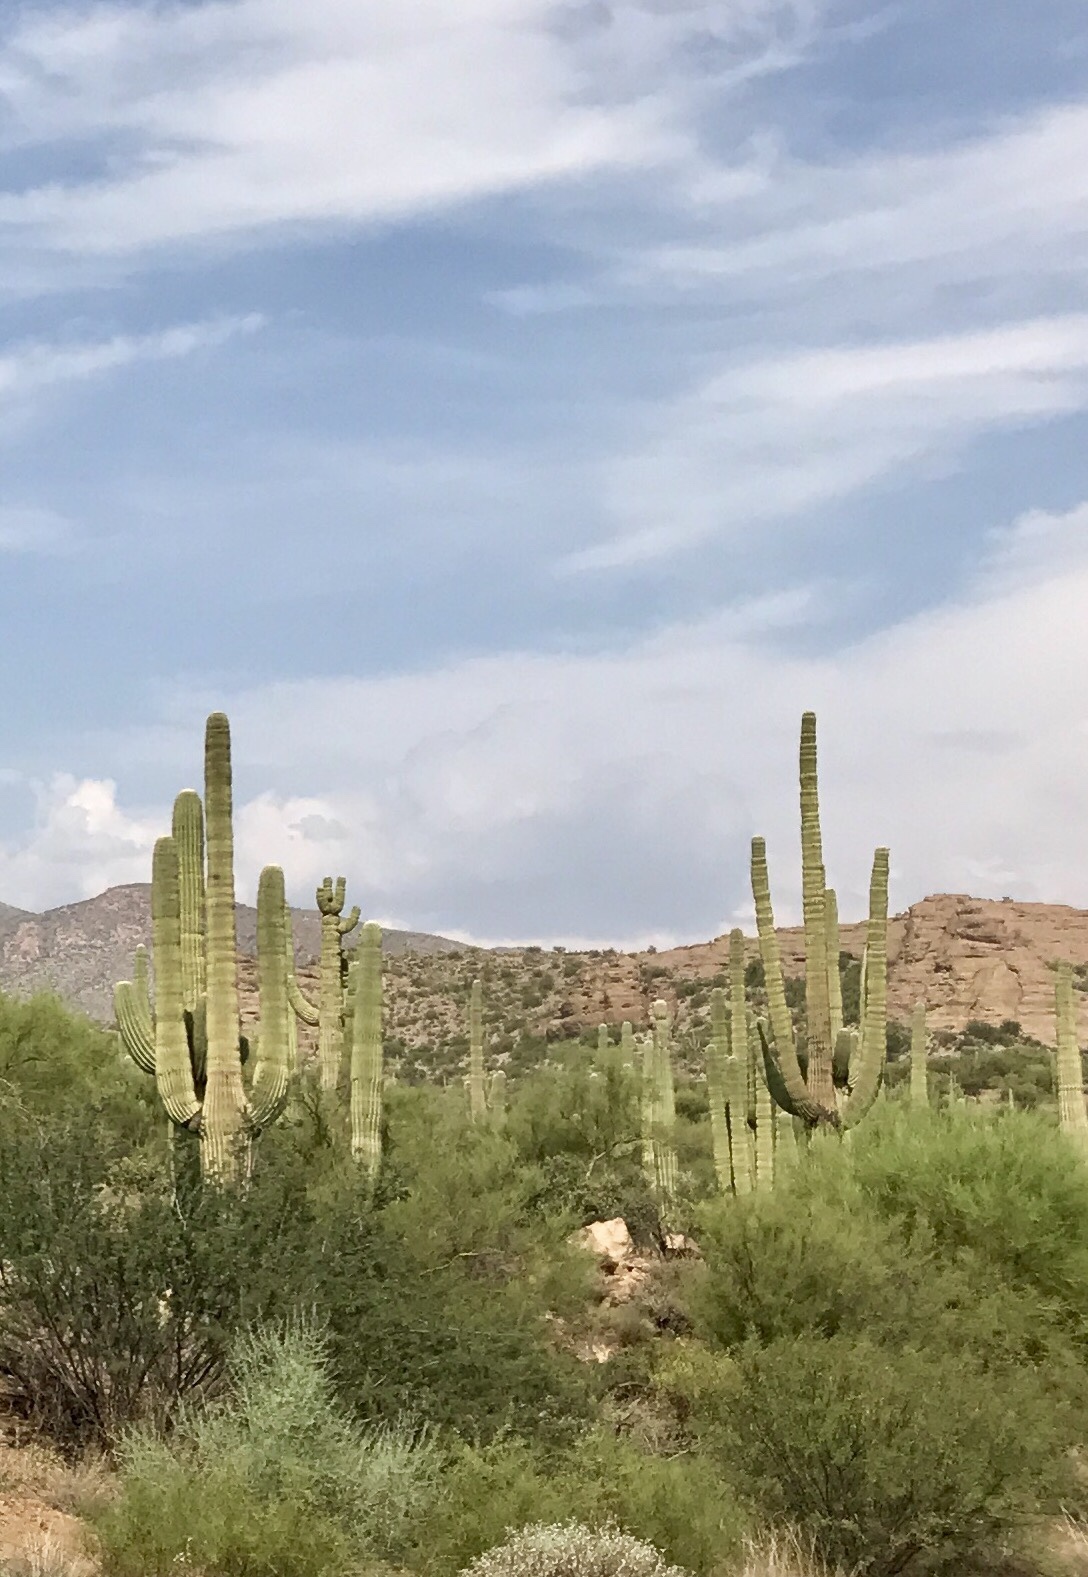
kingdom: Plantae
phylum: Tracheophyta
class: Magnoliopsida
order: Caryophyllales
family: Cactaceae
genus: Carnegiea
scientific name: Carnegiea gigantea
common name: Saguaro
